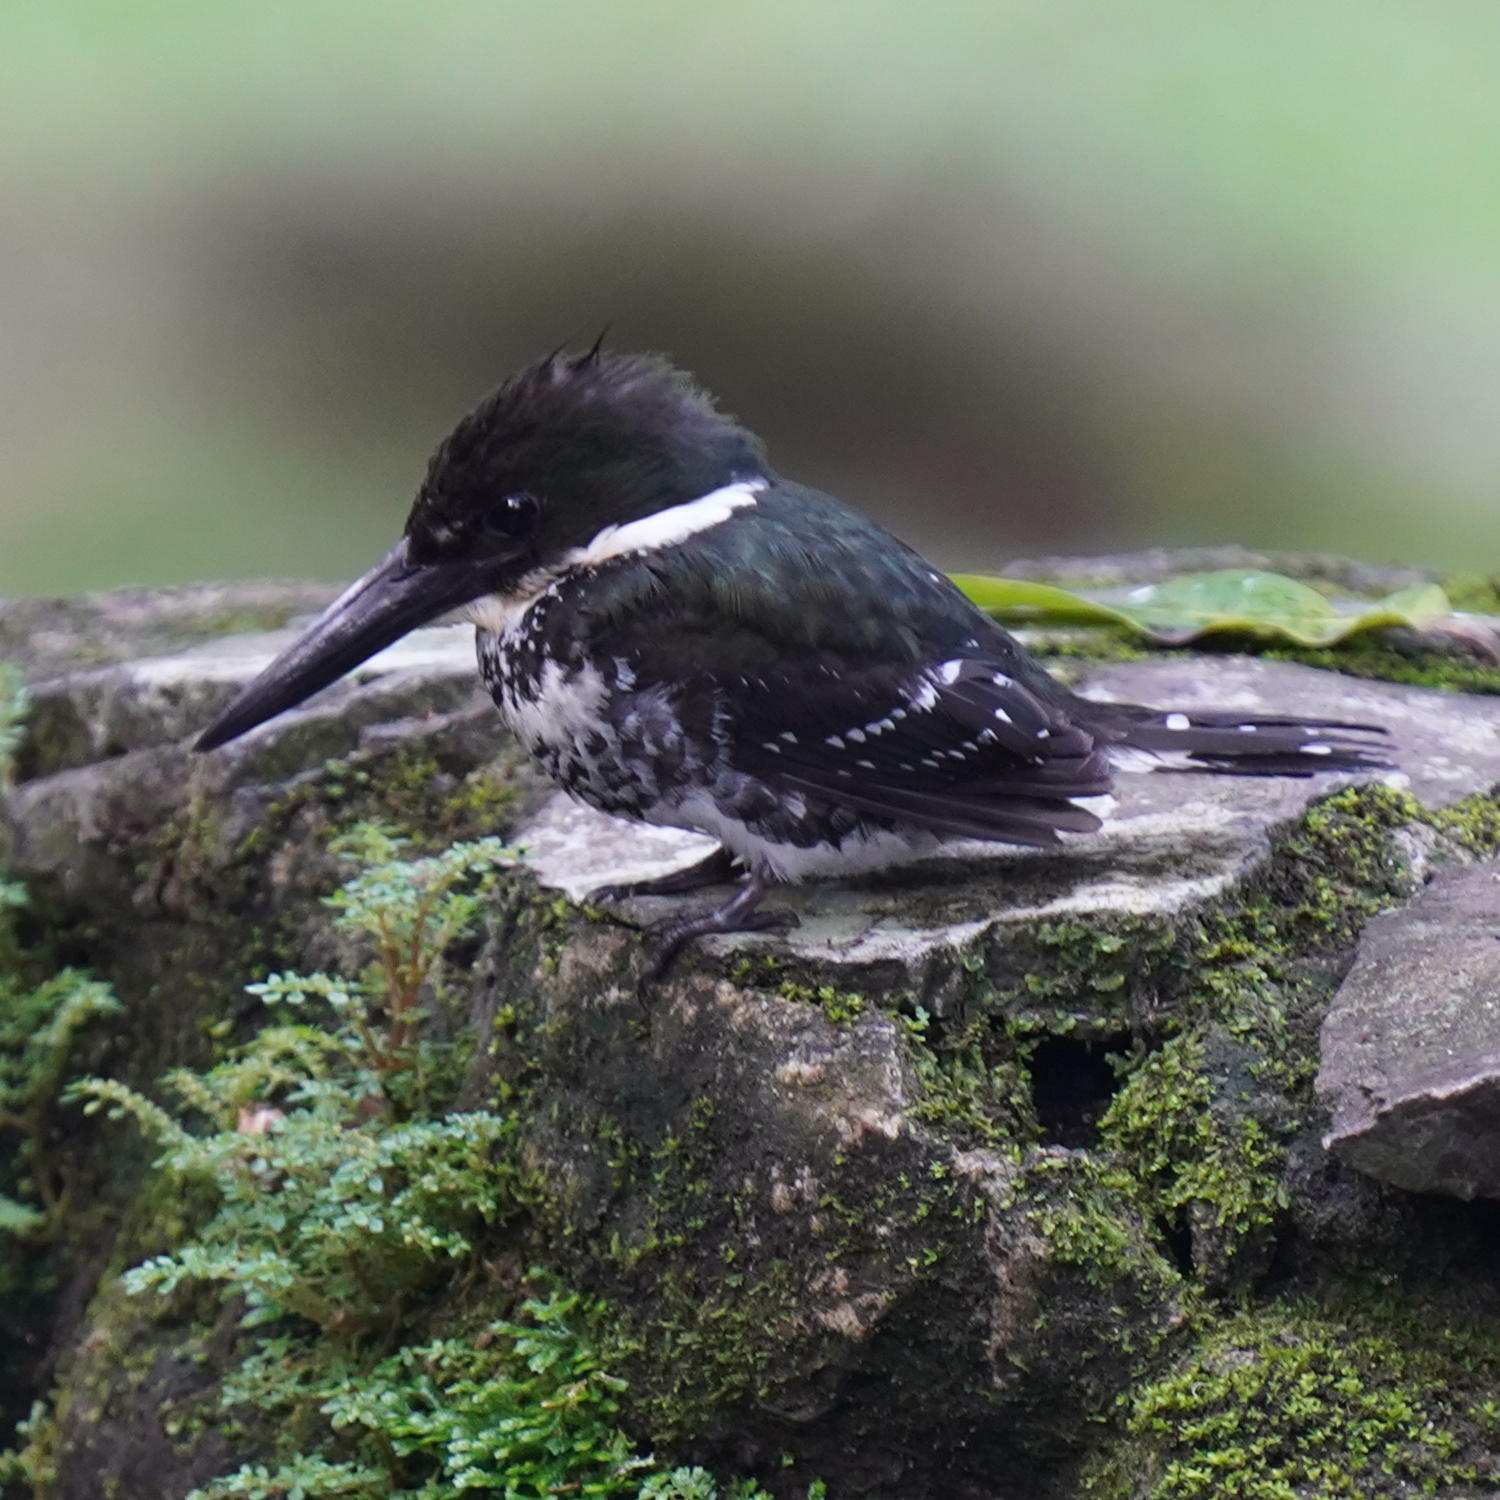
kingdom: Animalia
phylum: Chordata
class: Aves
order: Coraciiformes
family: Alcedinidae
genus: Chloroceryle
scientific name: Chloroceryle americana
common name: Green kingfisher
